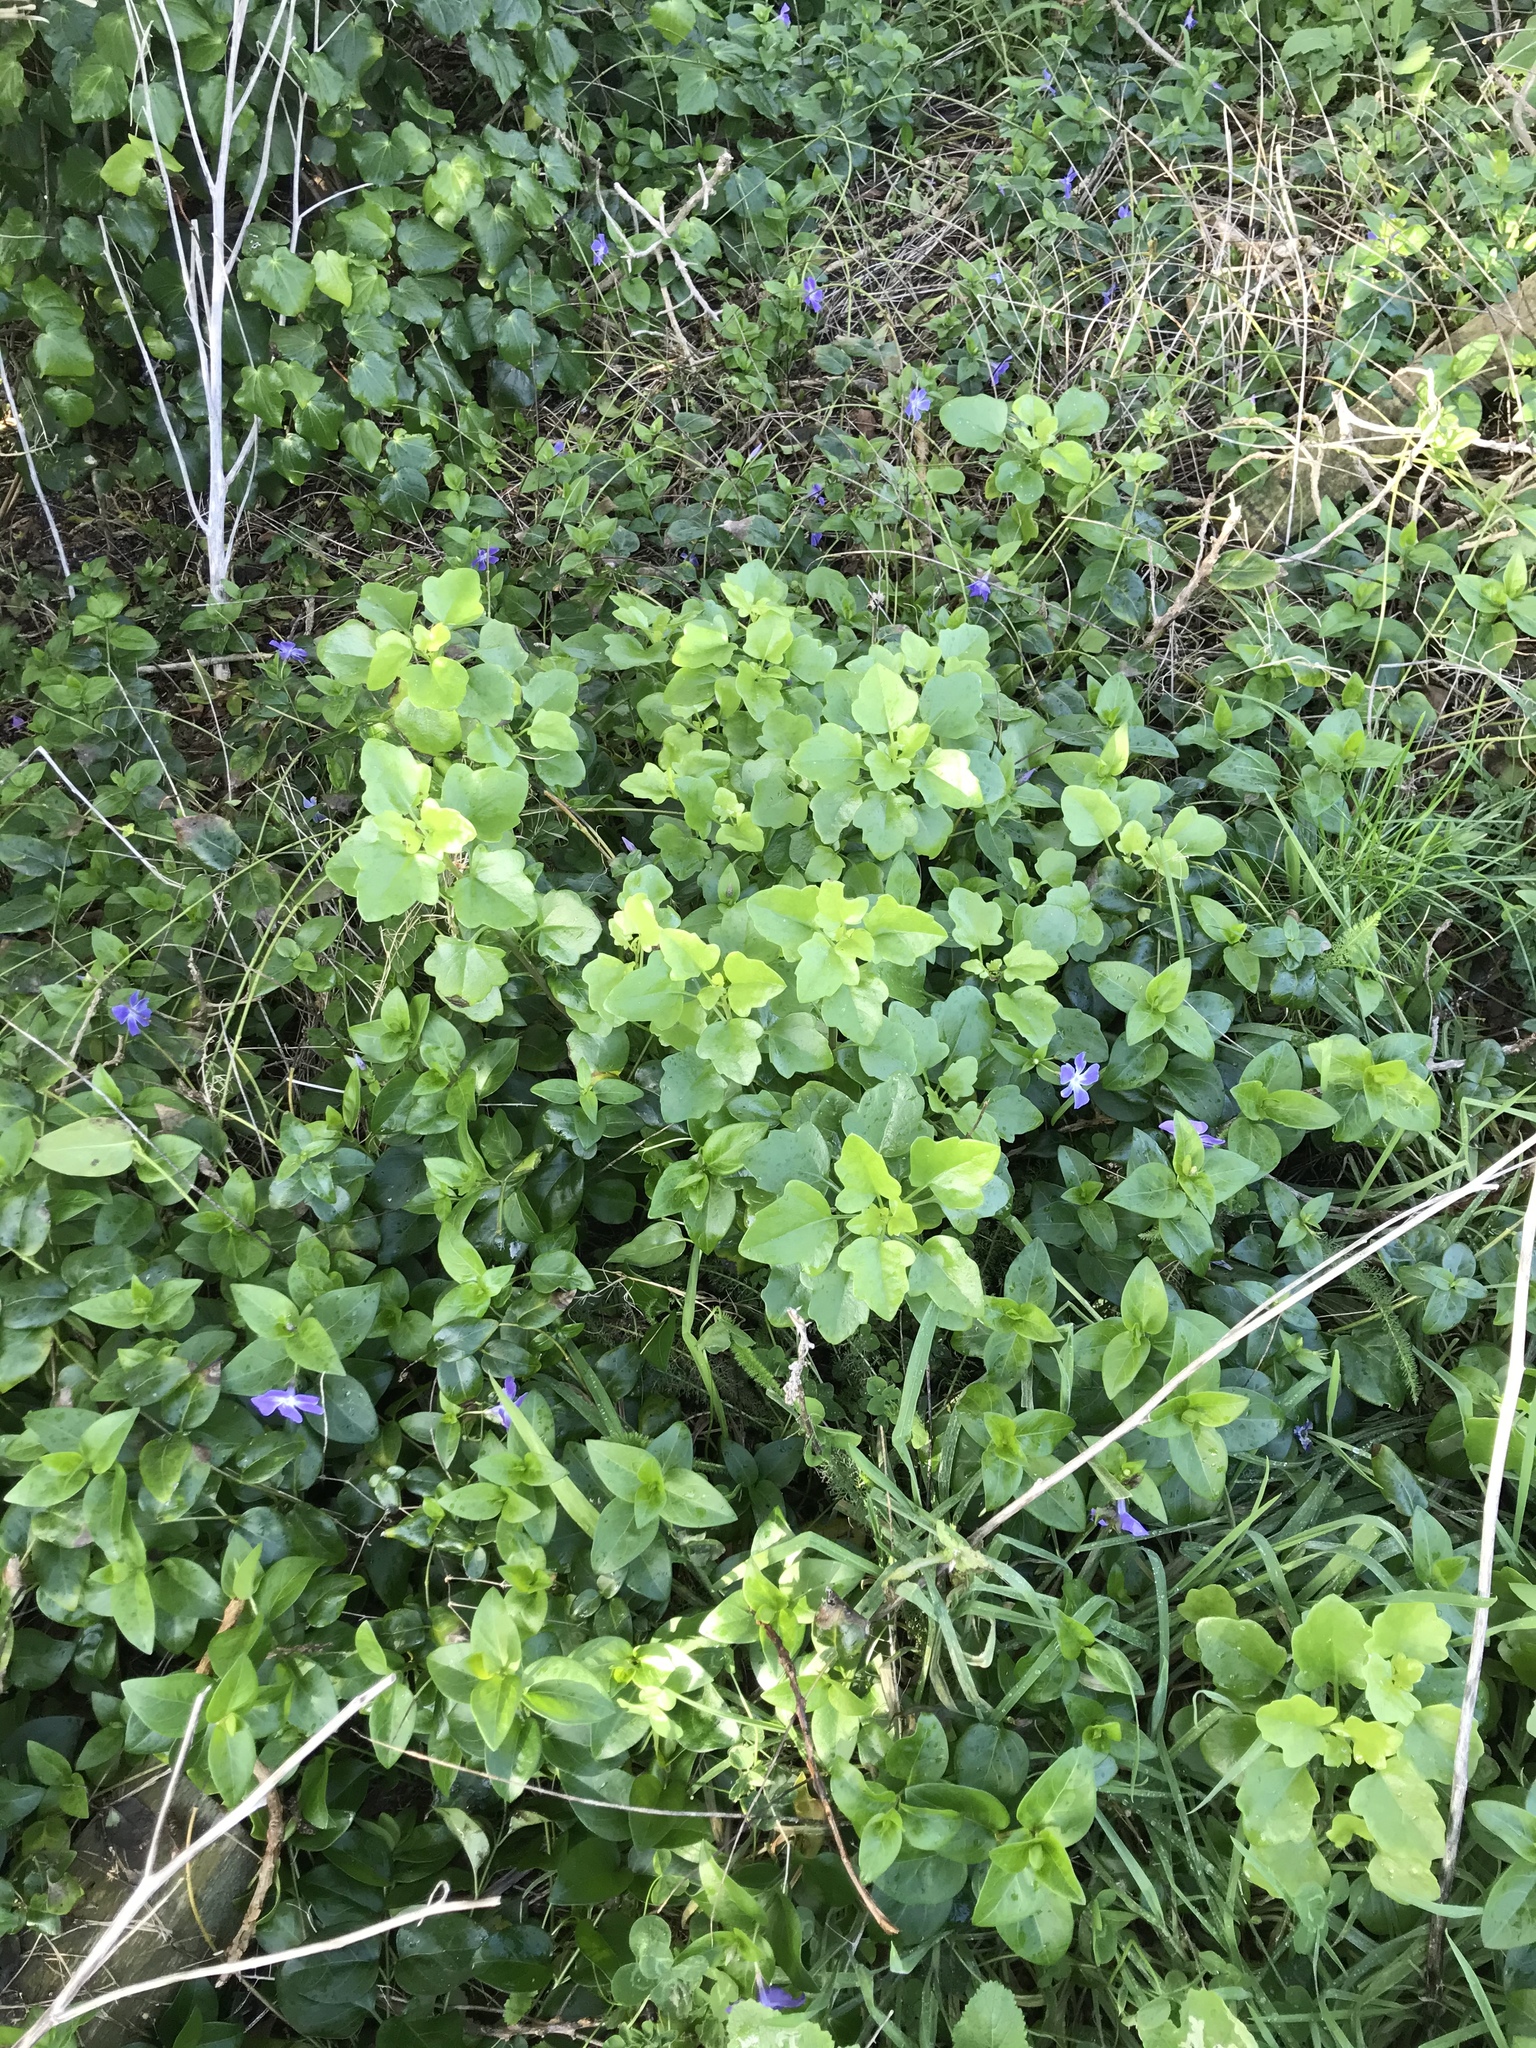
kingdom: Plantae
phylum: Tracheophyta
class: Magnoliopsida
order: Asterales
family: Asteraceae
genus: Senecio
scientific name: Senecio angulatus
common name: Climbing groundsel
